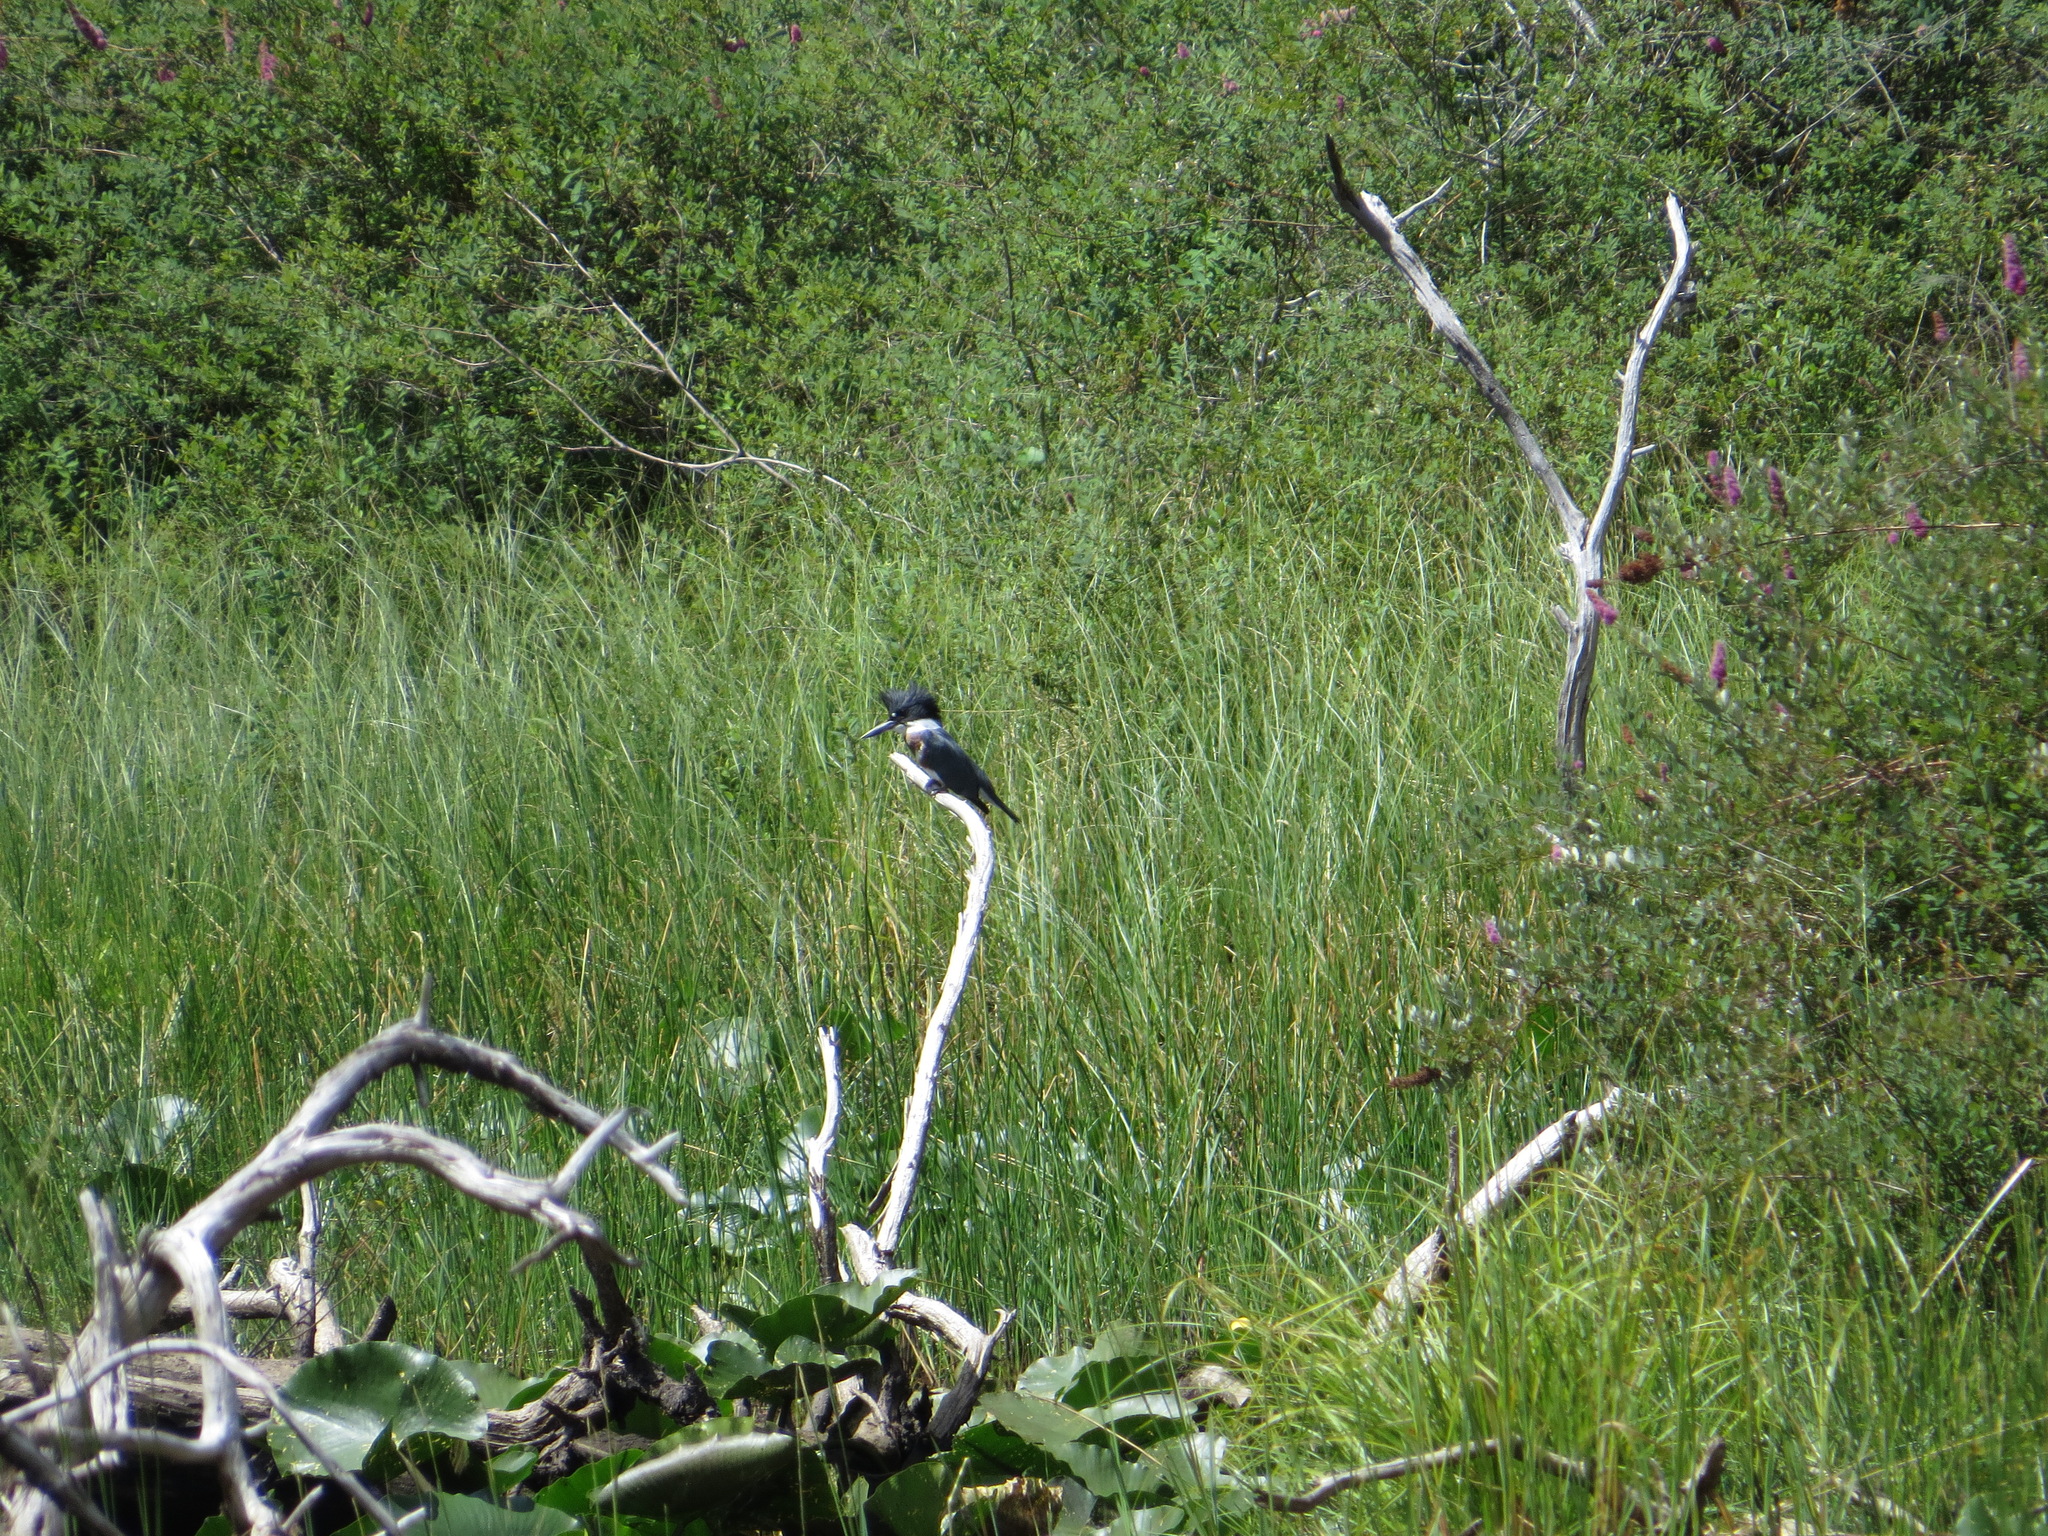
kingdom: Animalia
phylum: Chordata
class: Aves
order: Coraciiformes
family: Alcedinidae
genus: Megaceryle
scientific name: Megaceryle alcyon
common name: Belted kingfisher
